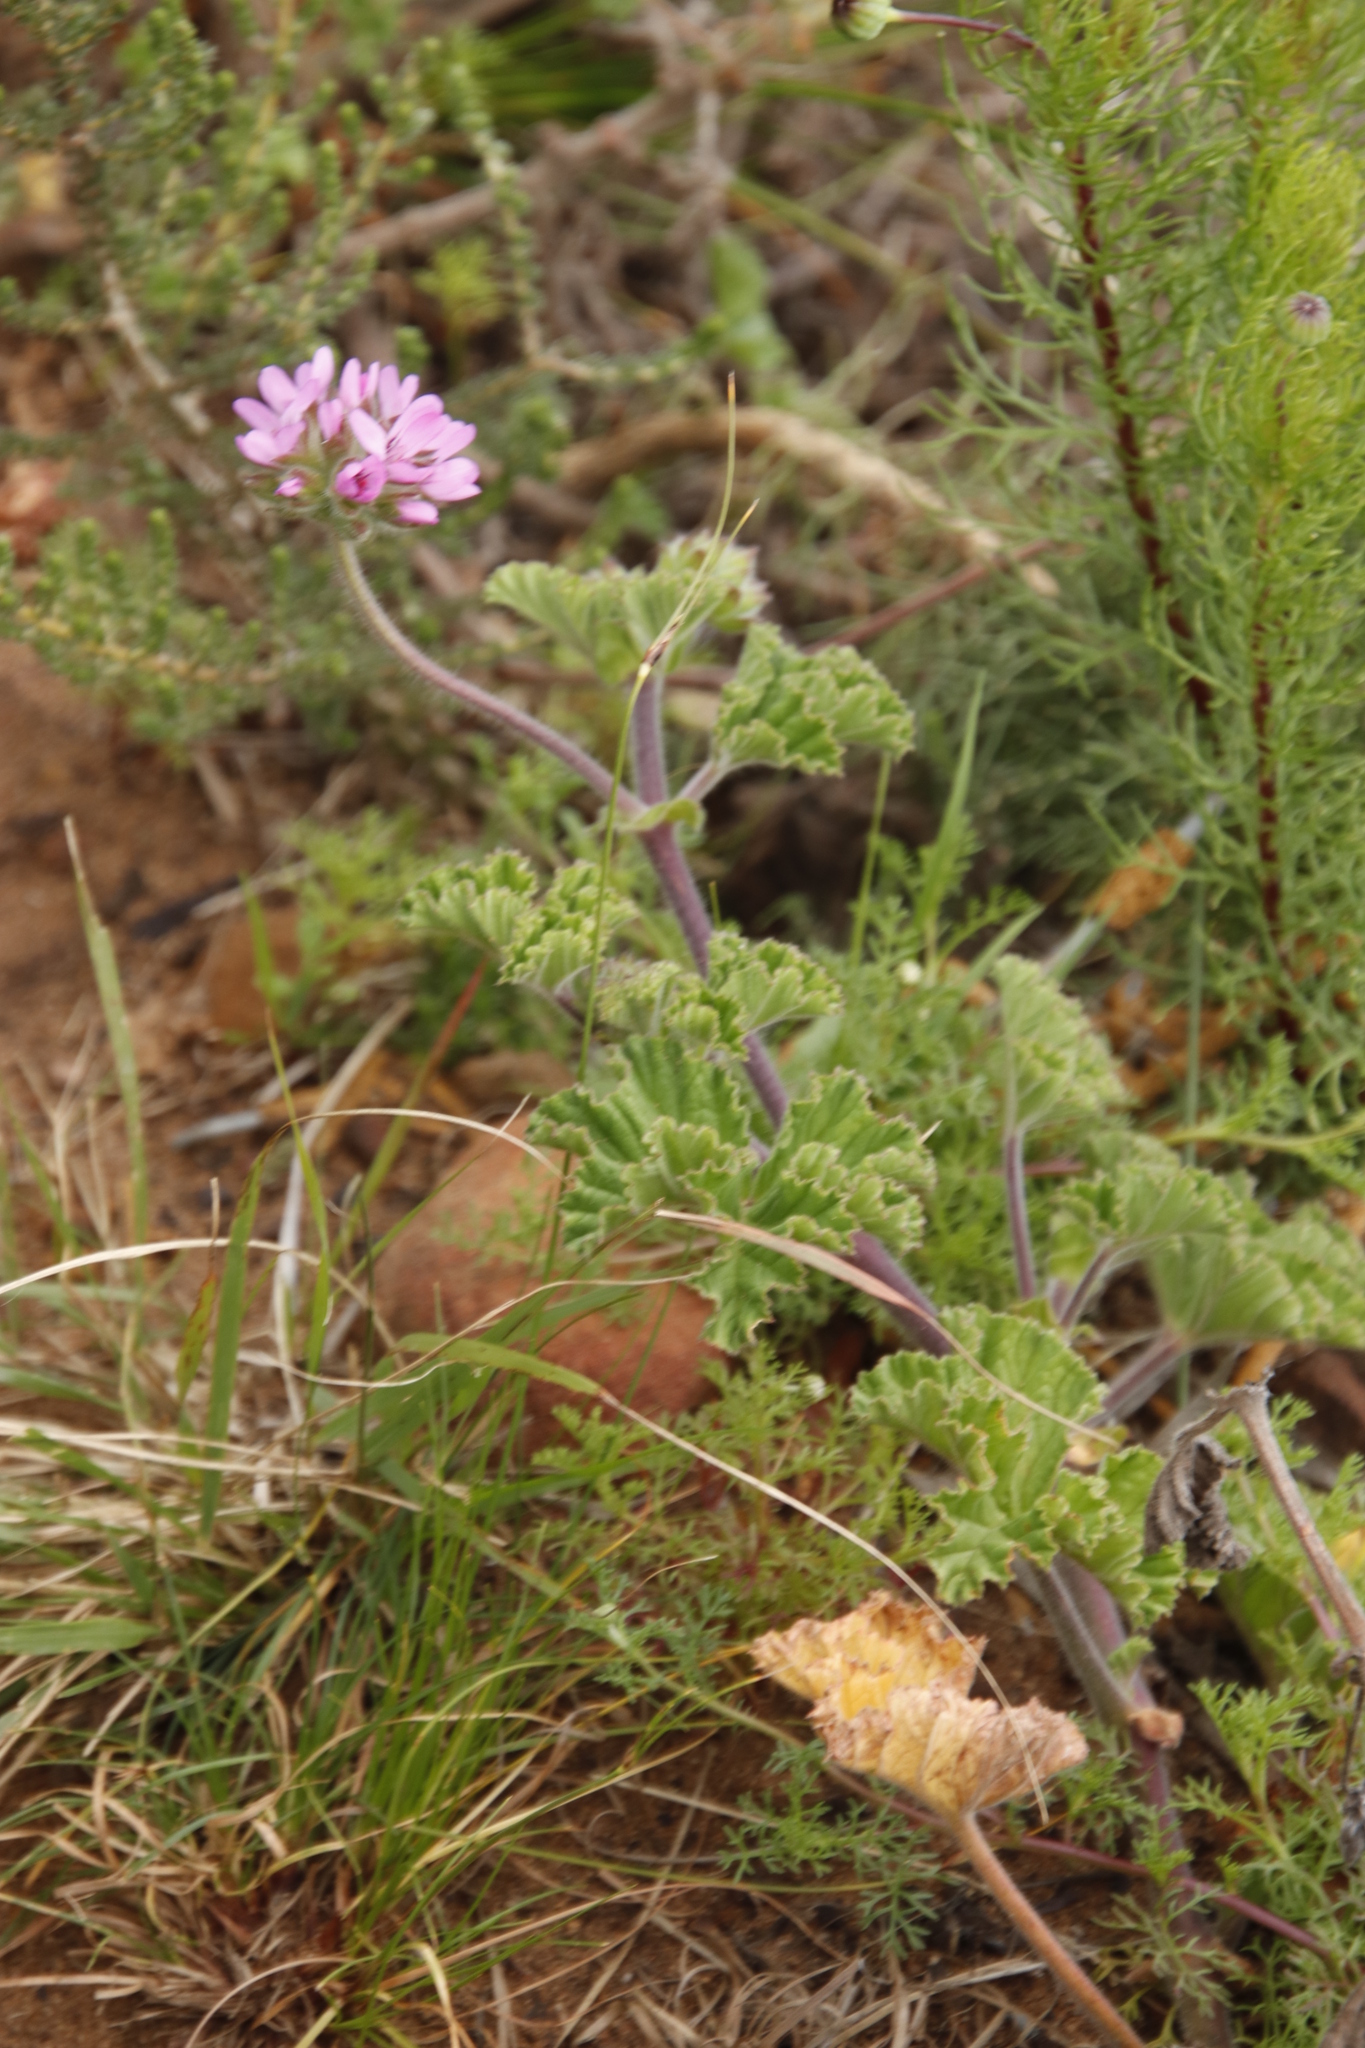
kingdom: Plantae
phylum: Tracheophyta
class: Magnoliopsida
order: Geraniales
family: Geraniaceae
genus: Pelargonium
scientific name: Pelargonium capitatum
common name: Rose scented geranium
